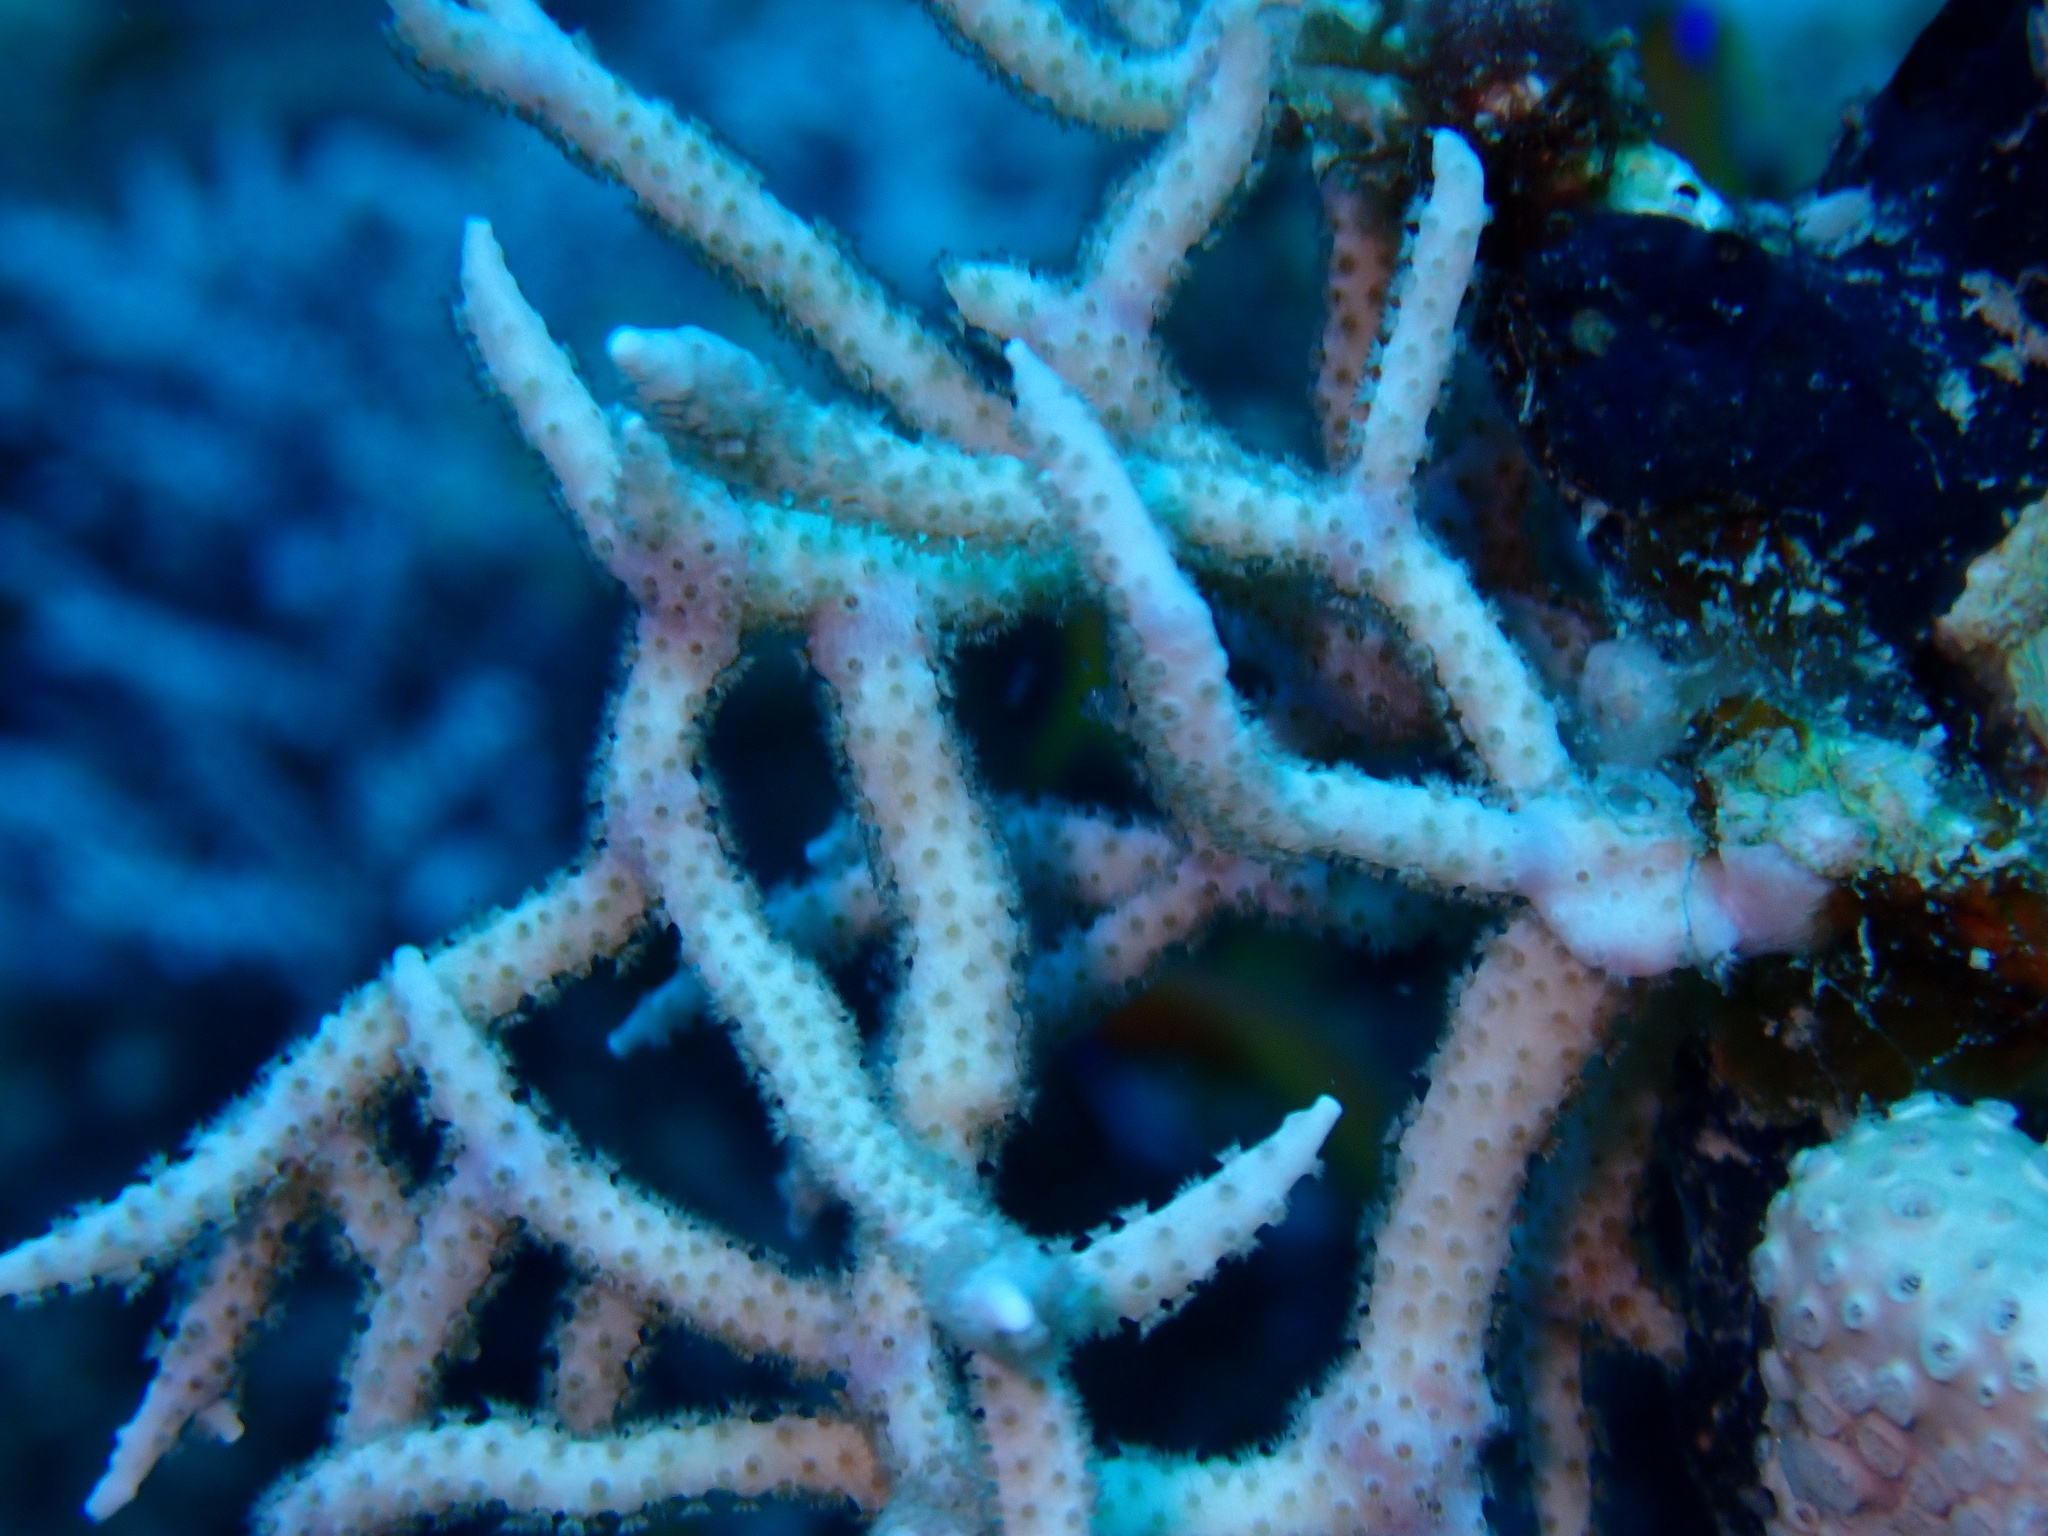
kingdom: Animalia
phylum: Cnidaria
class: Anthozoa
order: Malacalcyonacea
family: Melithaeidae
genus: Melithaea
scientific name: Melithaea rubrinodis
